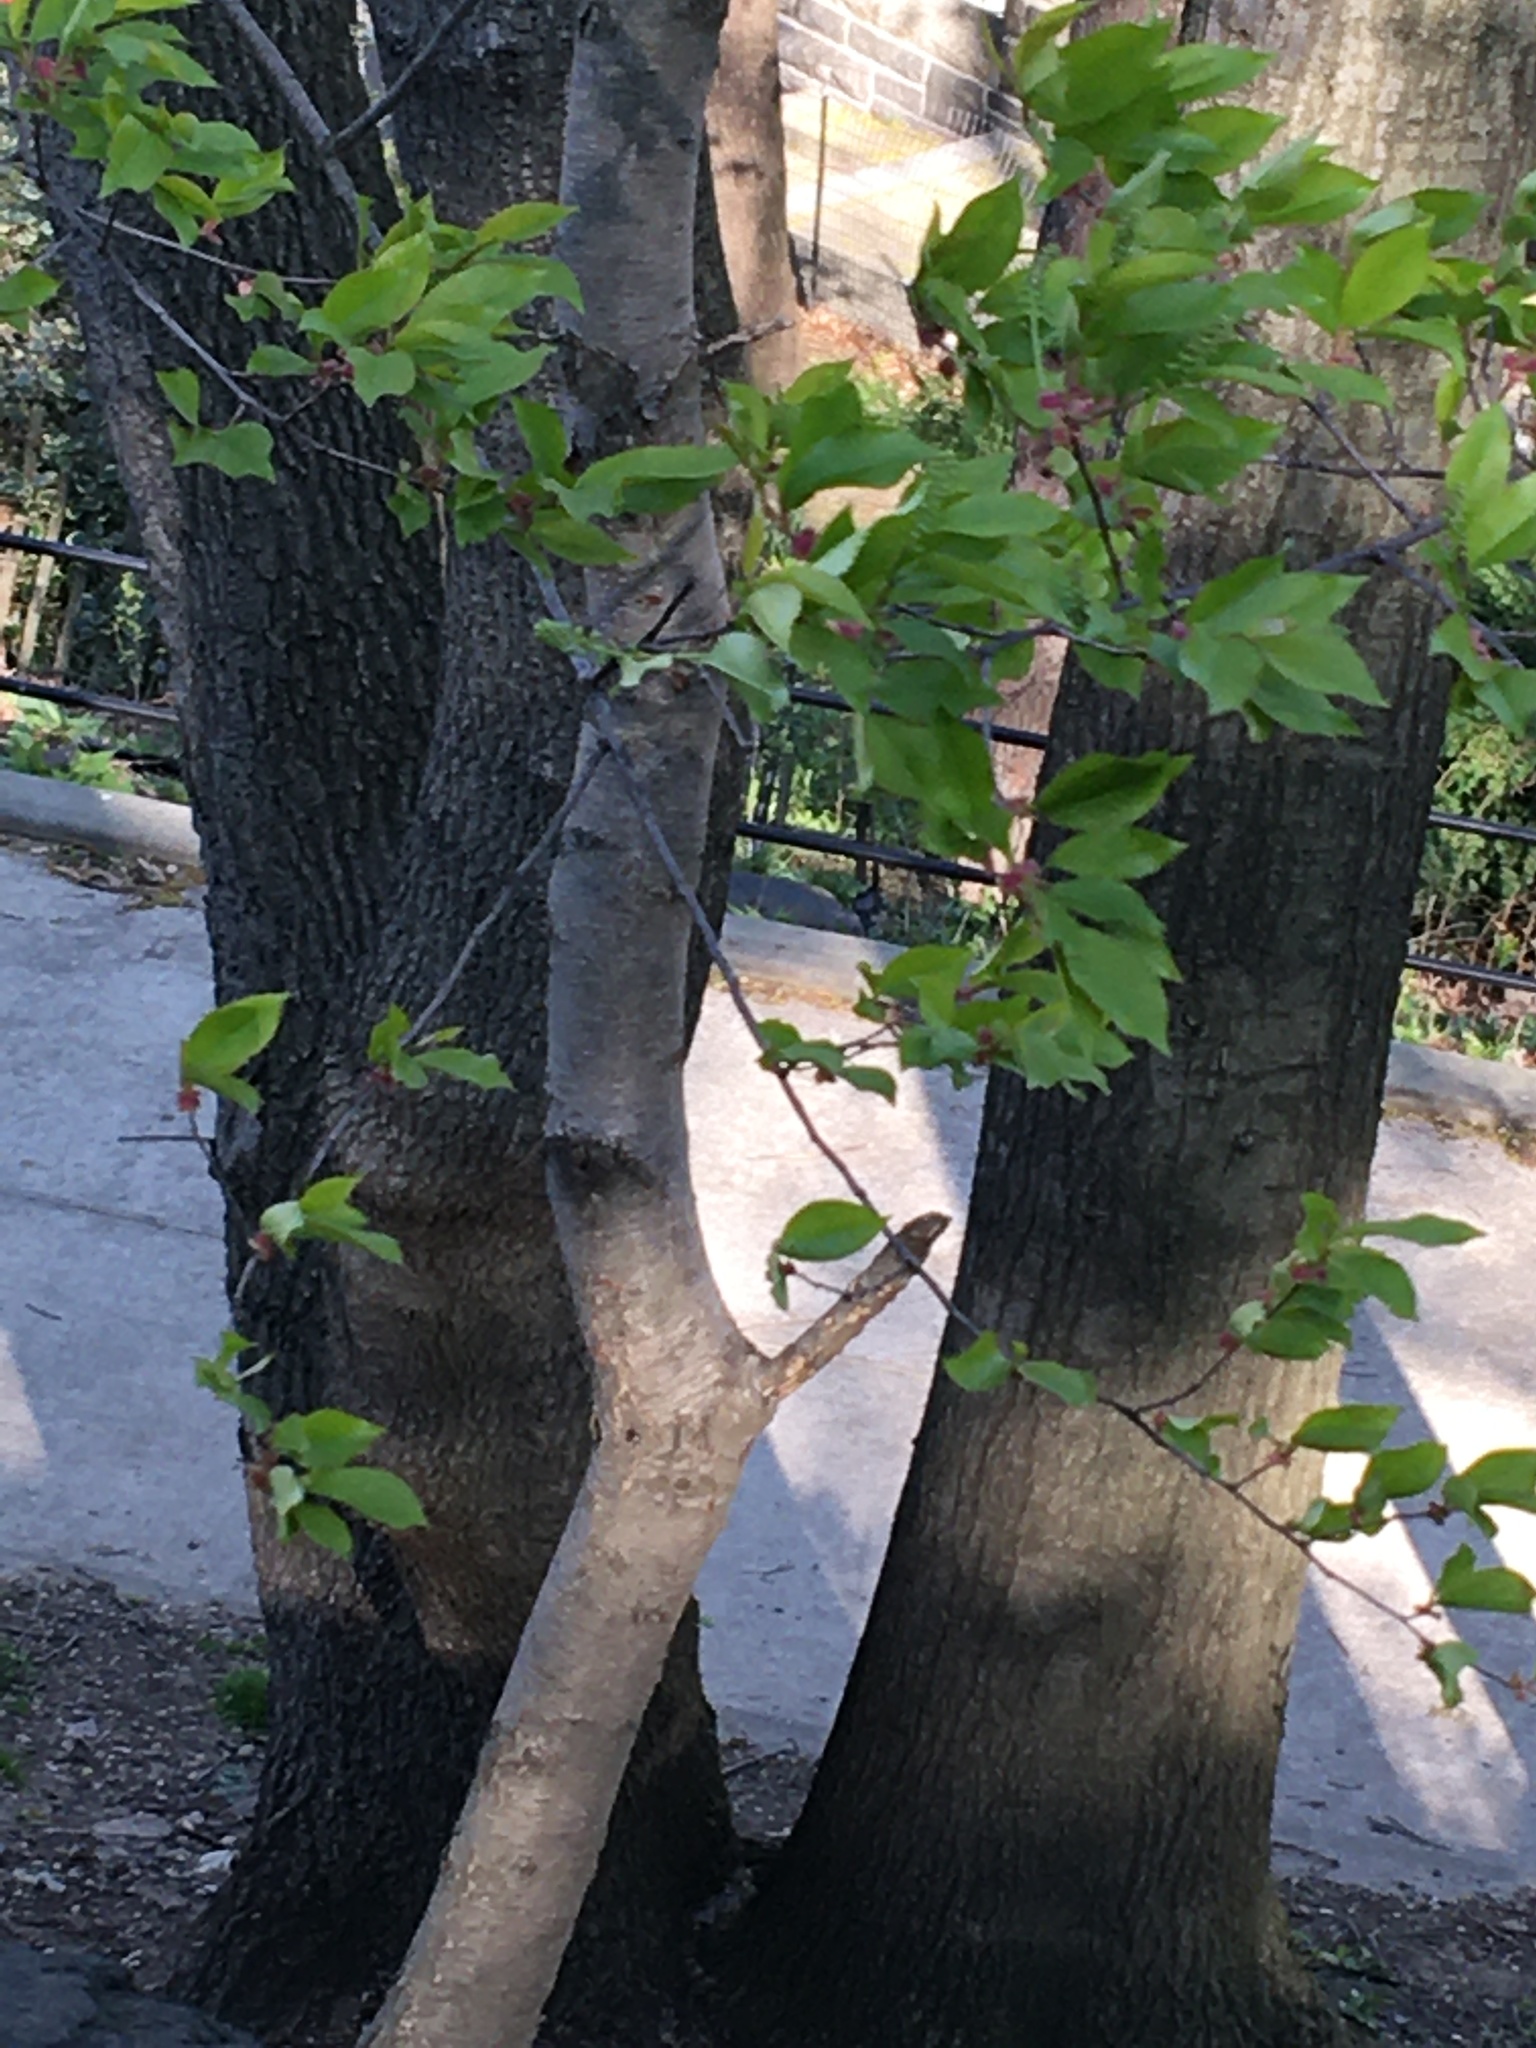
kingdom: Plantae
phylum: Tracheophyta
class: Magnoliopsida
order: Rosales
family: Rosaceae
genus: Prunus
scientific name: Prunus serotina
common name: Black cherry
